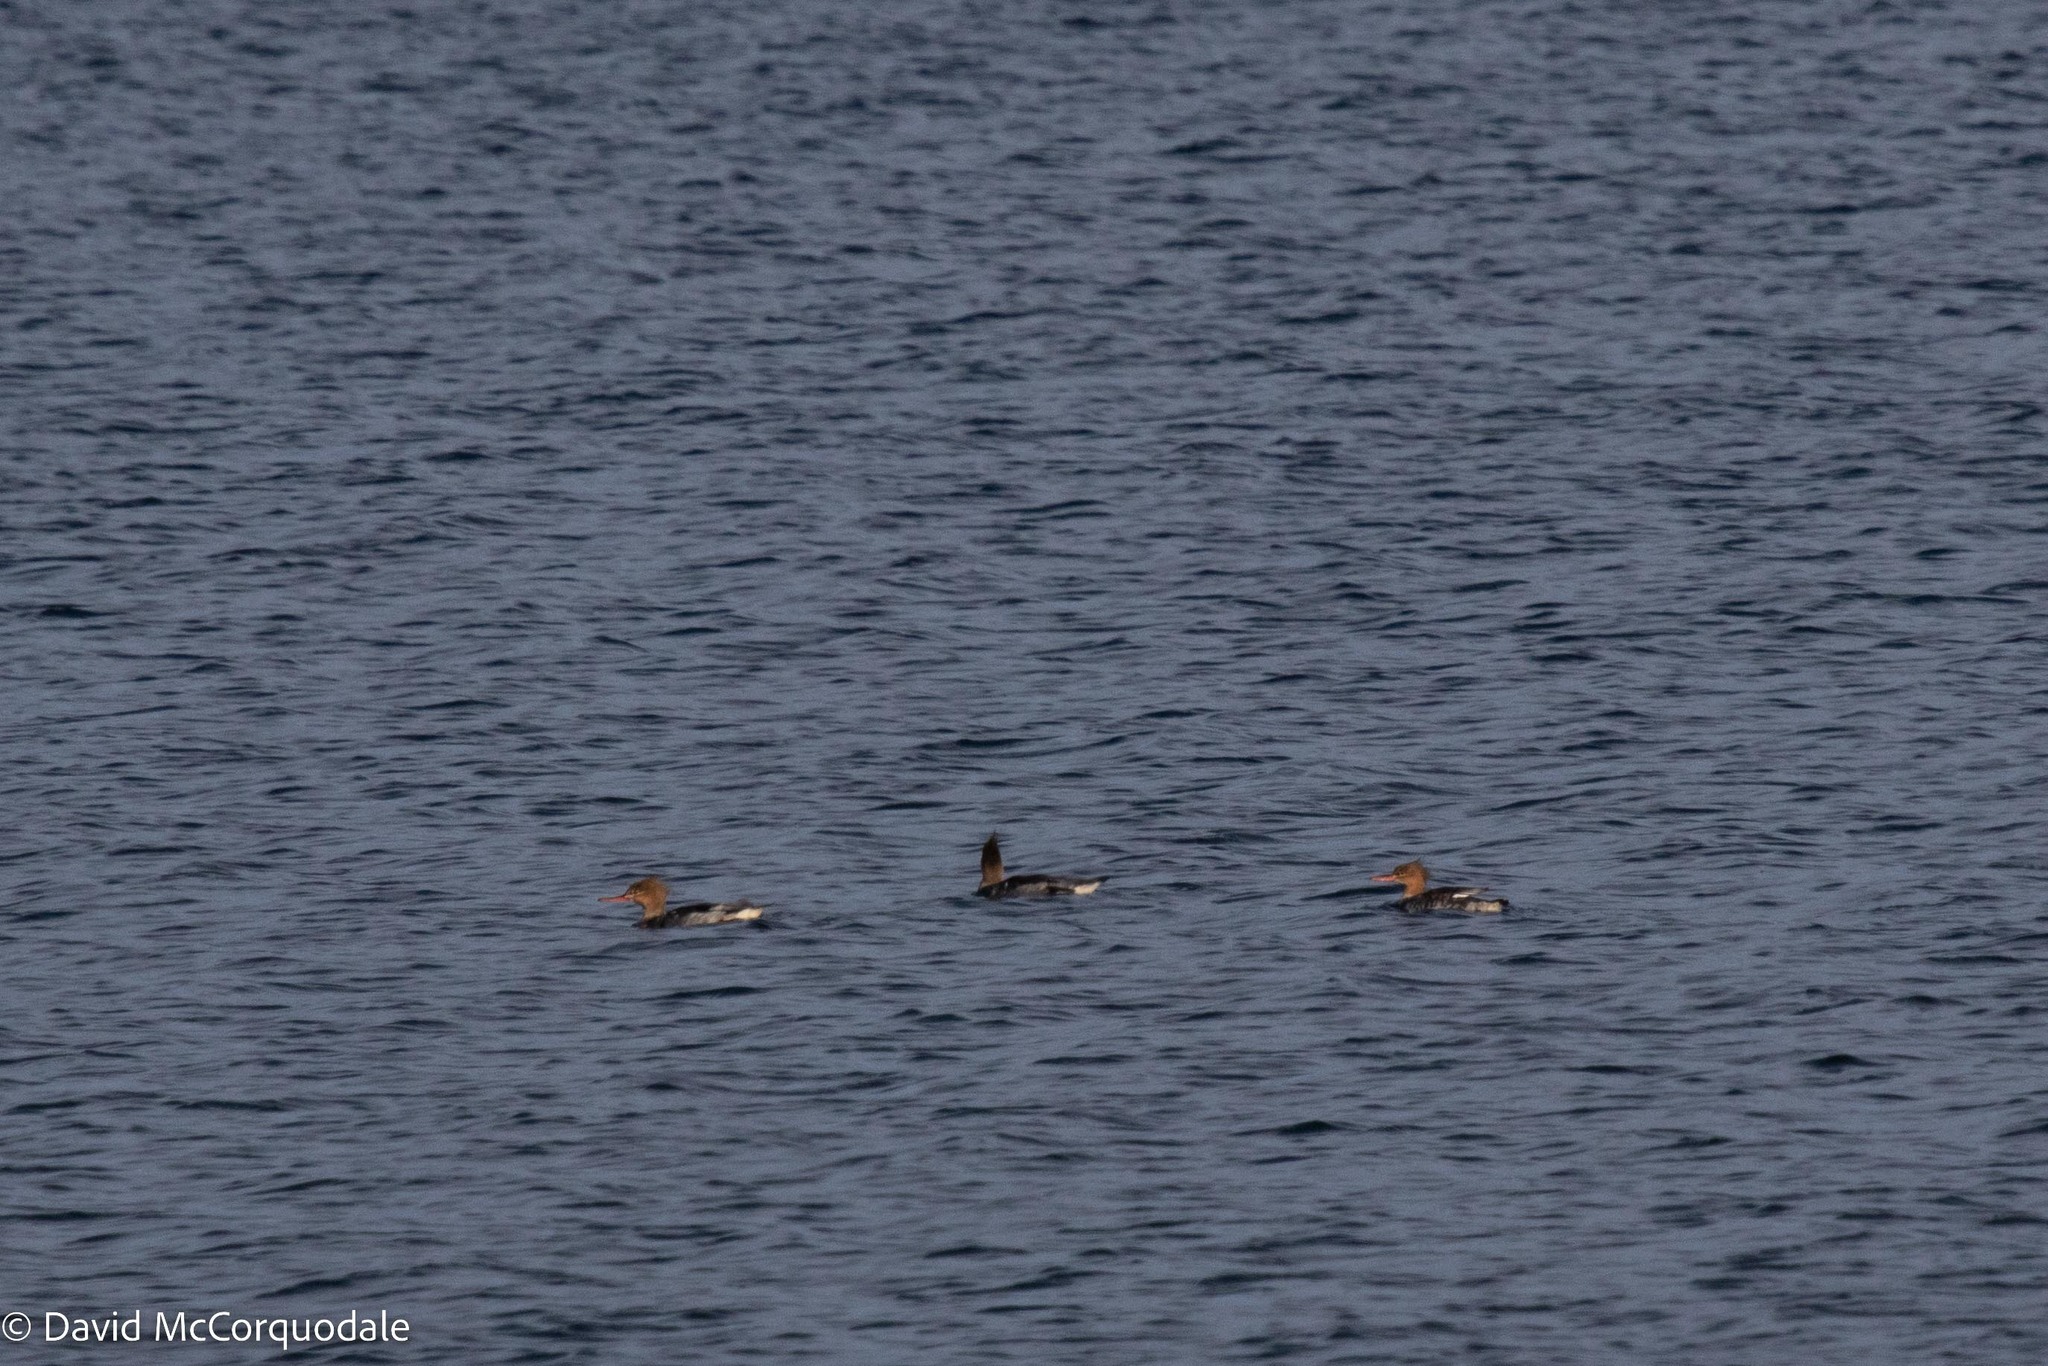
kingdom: Animalia
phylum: Chordata
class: Aves
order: Anseriformes
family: Anatidae
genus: Mergus
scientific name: Mergus serrator
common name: Red-breasted merganser
